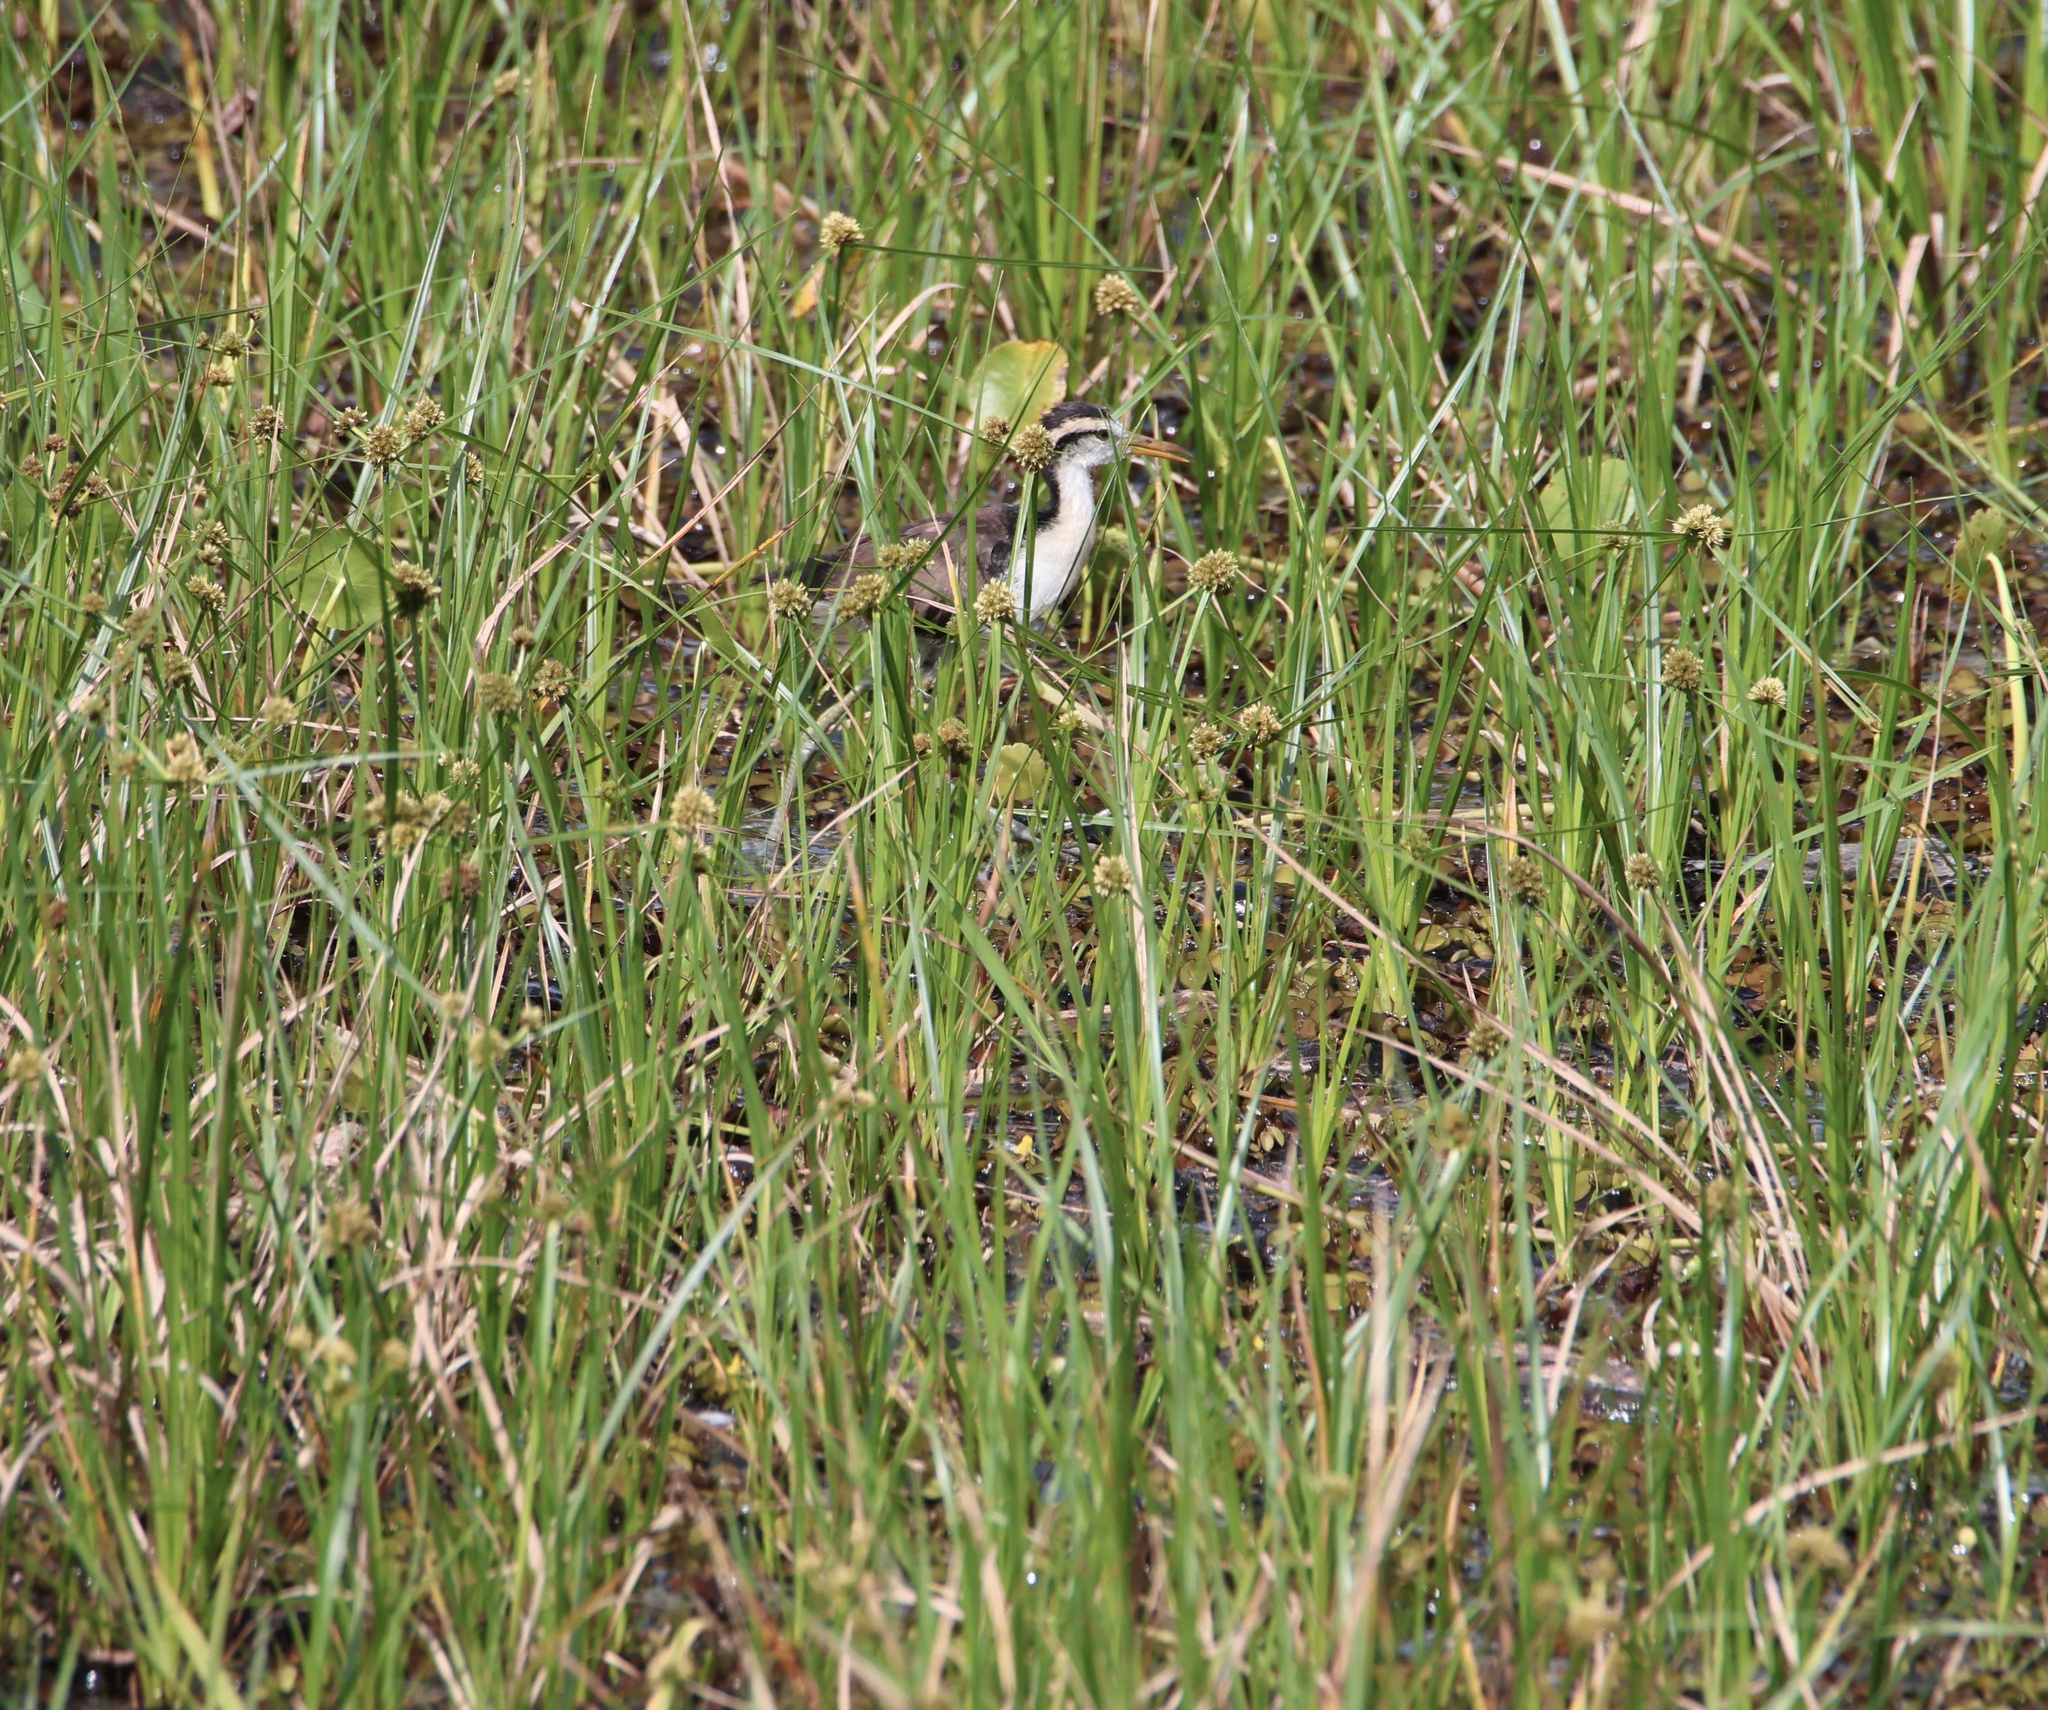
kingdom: Animalia
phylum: Chordata
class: Aves
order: Charadriiformes
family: Jacanidae
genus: Jacana
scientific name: Jacana jacana
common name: Wattled jacana
